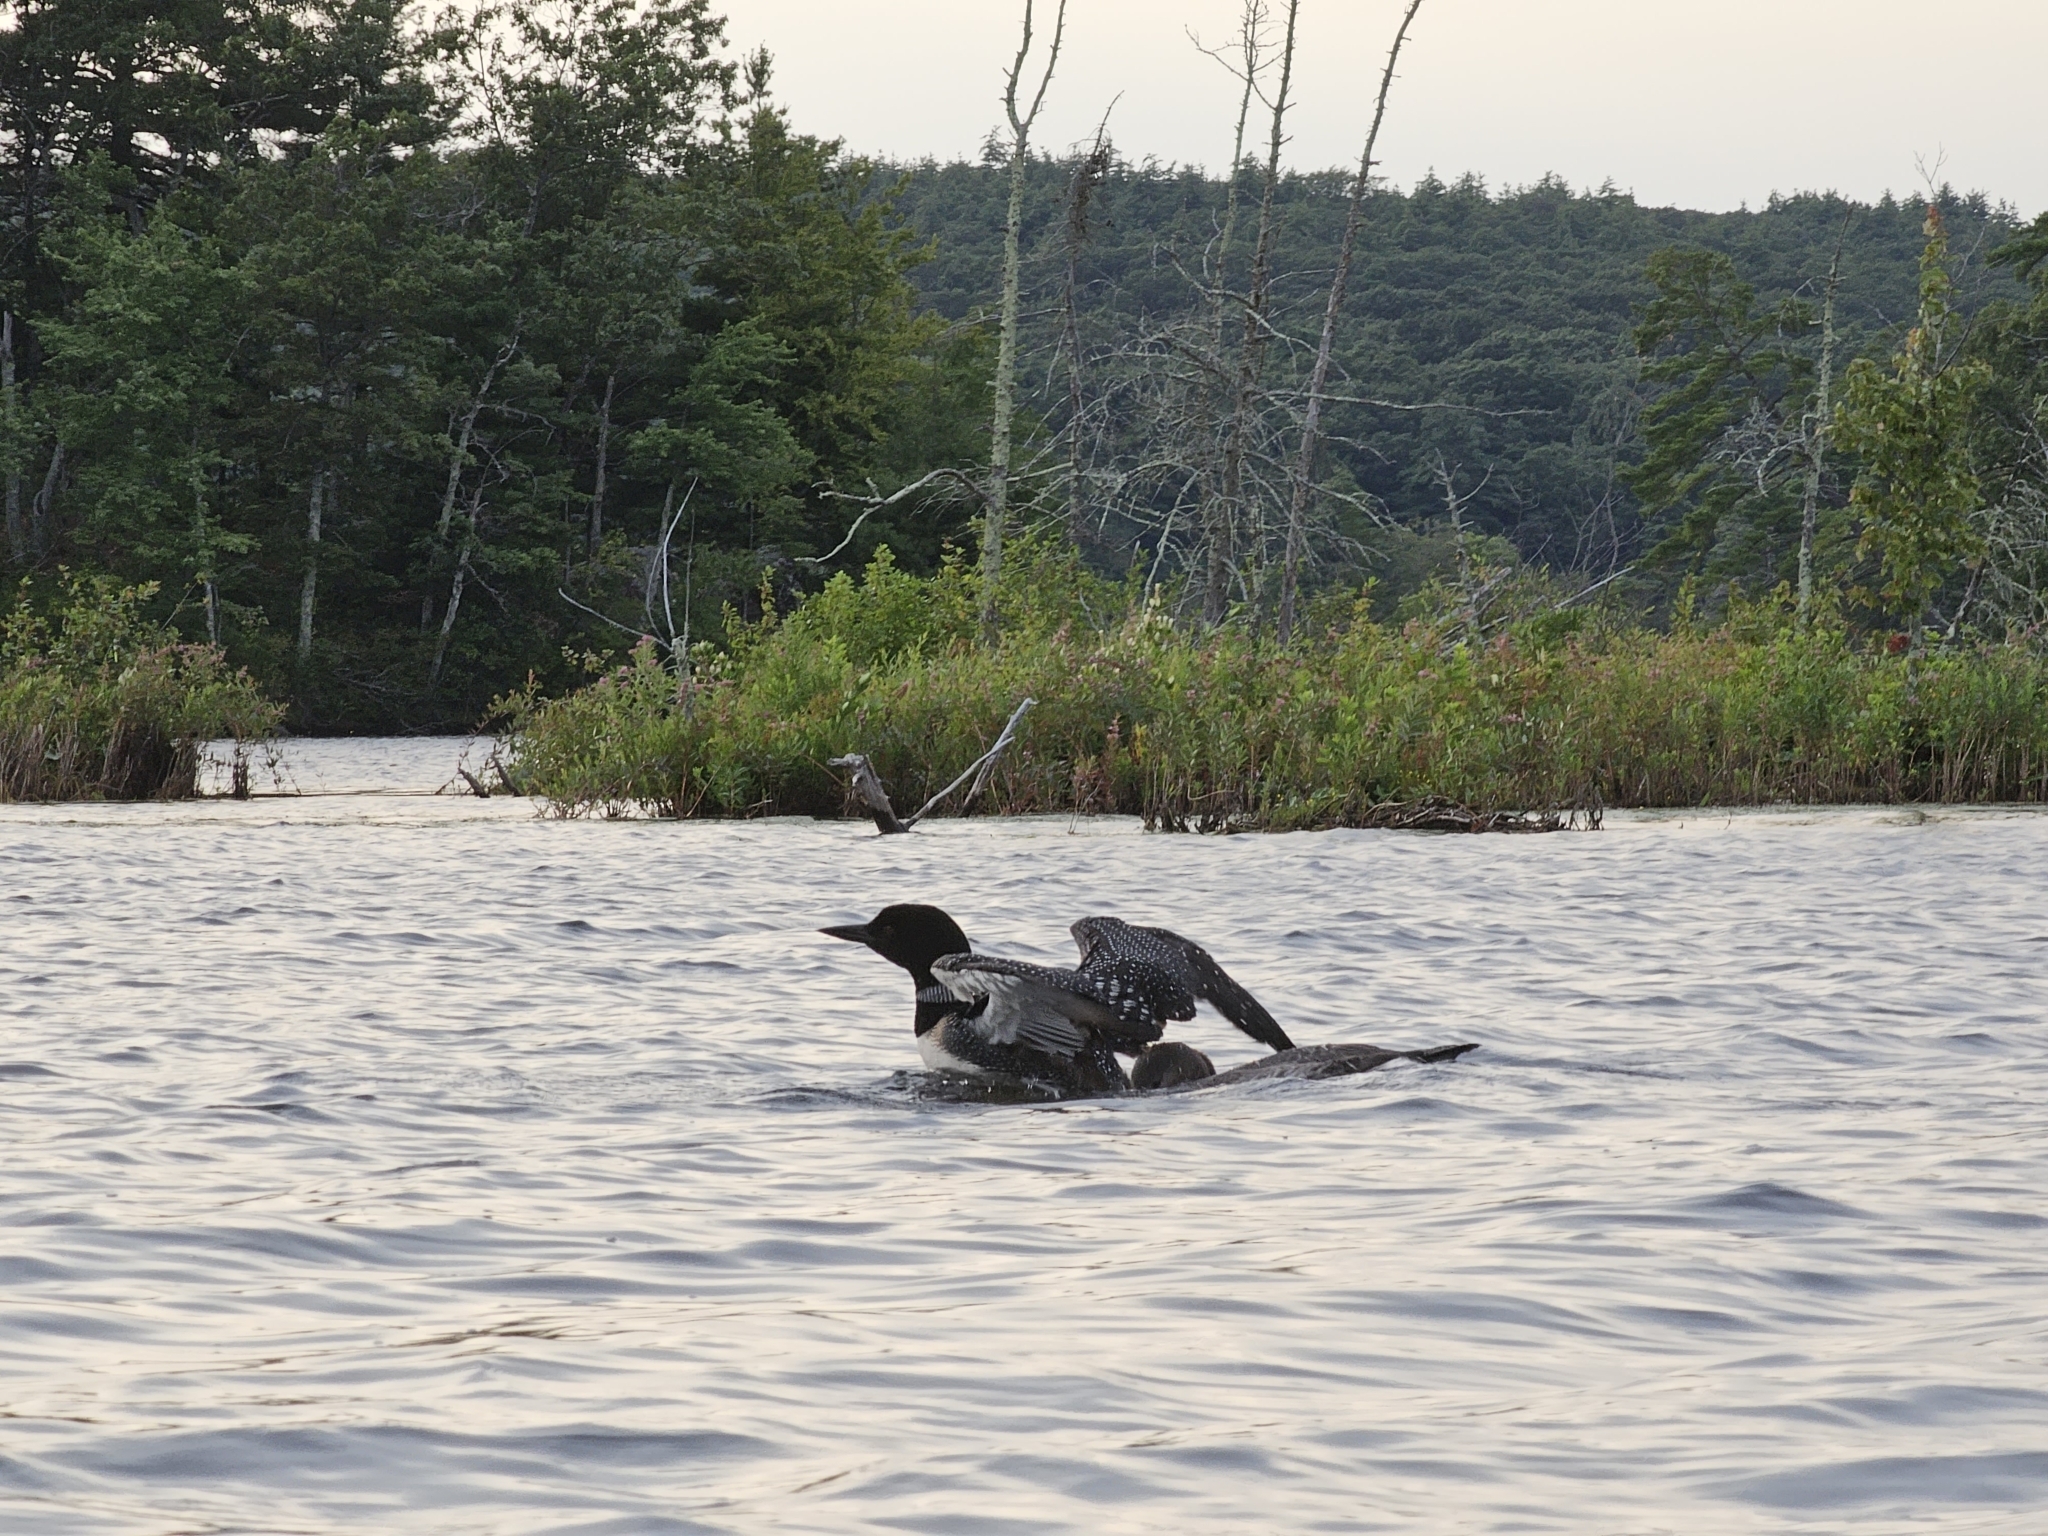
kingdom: Animalia
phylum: Chordata
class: Aves
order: Gaviiformes
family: Gaviidae
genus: Gavia
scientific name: Gavia immer
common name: Common loon
